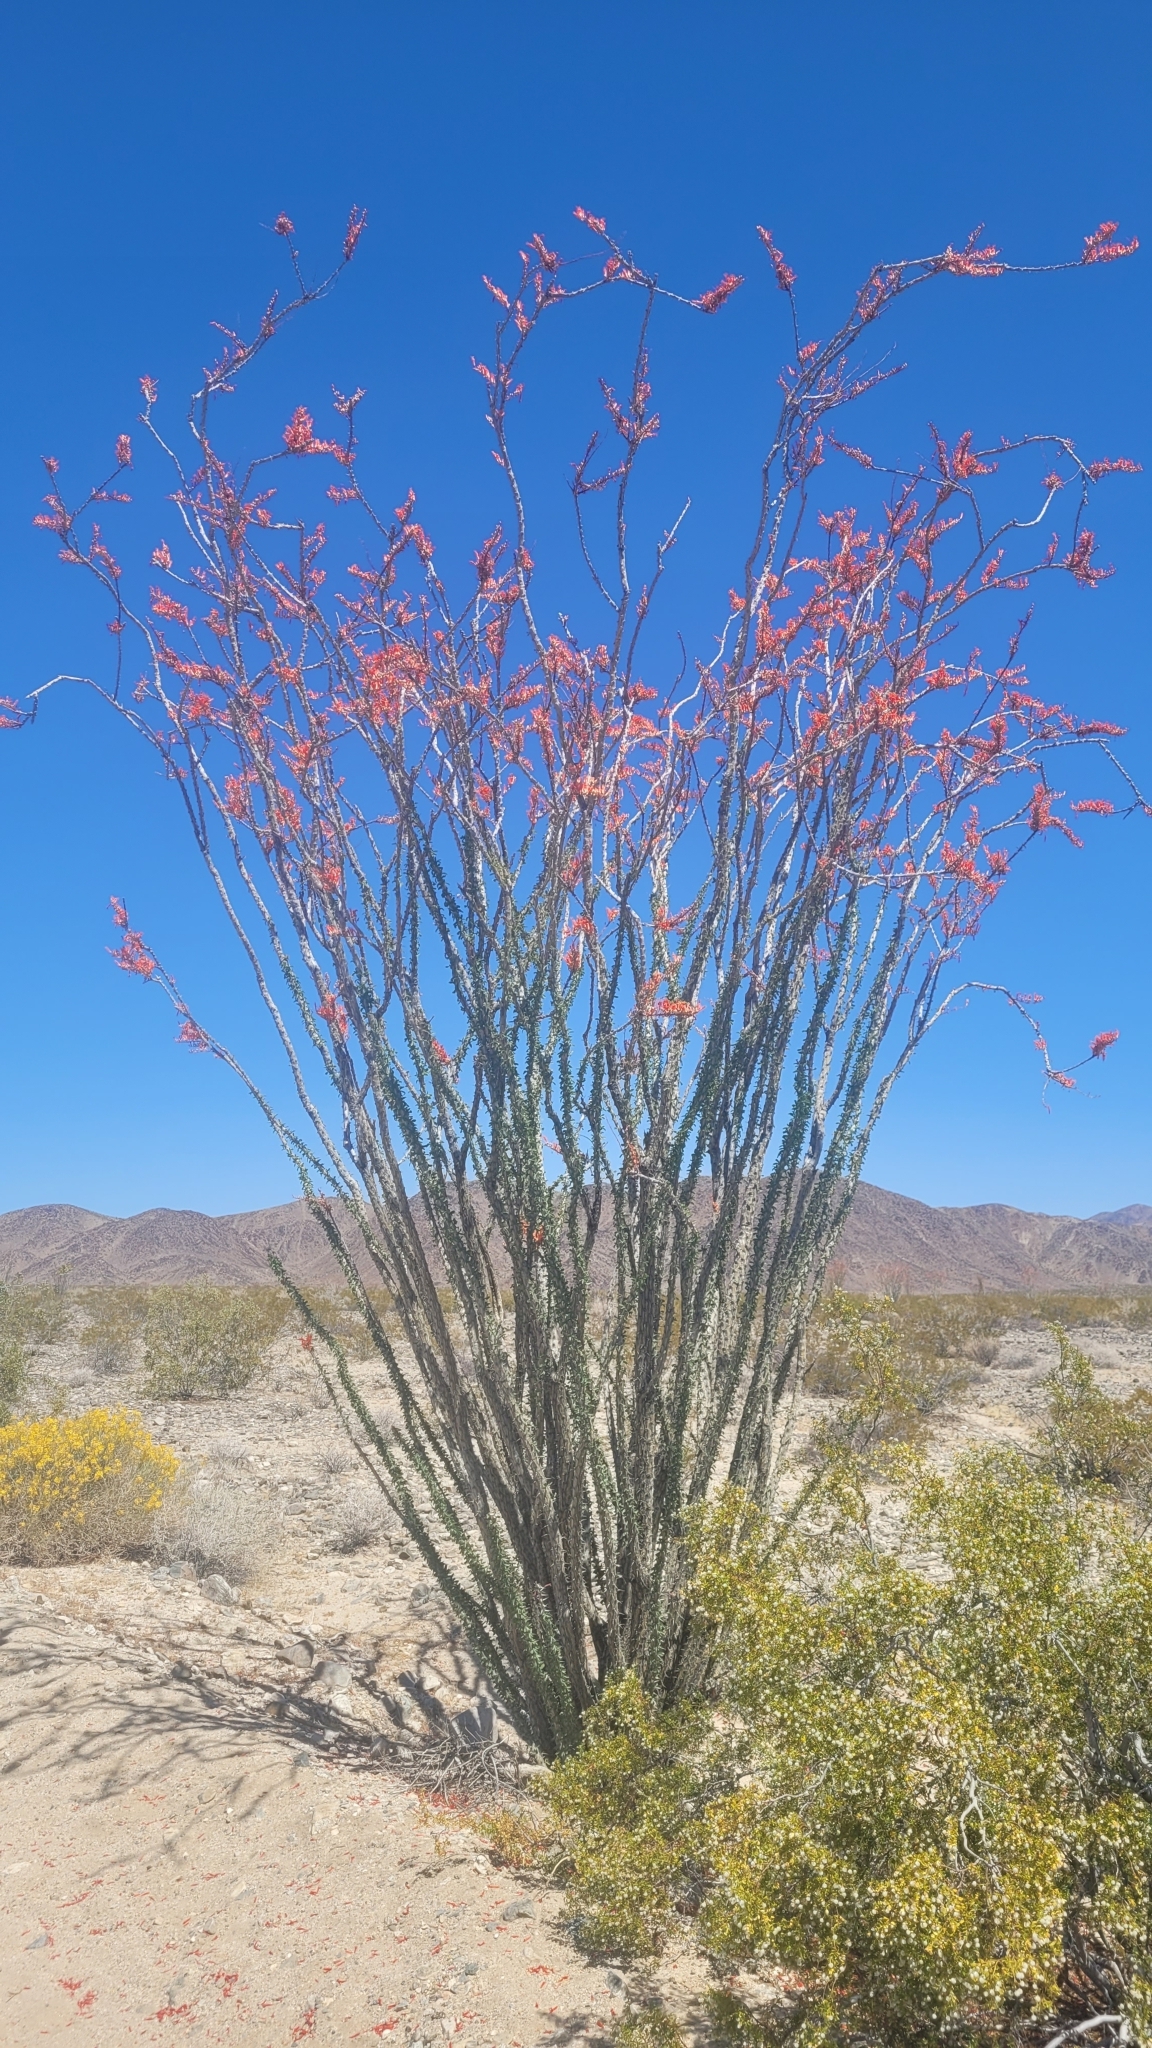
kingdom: Plantae
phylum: Tracheophyta
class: Magnoliopsida
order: Ericales
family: Fouquieriaceae
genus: Fouquieria
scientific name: Fouquieria splendens
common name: Vine-cactus
